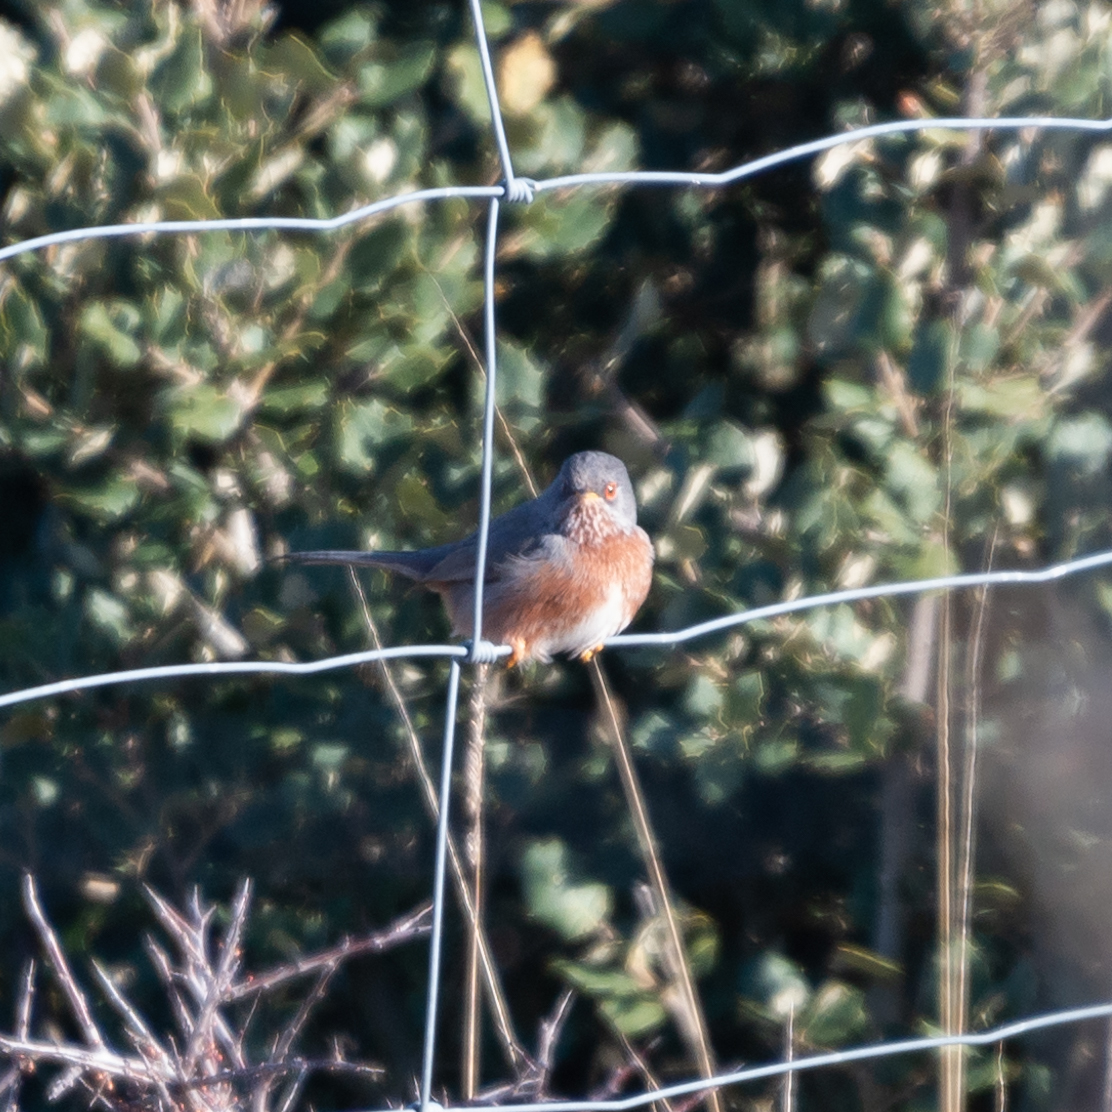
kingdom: Animalia
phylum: Chordata
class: Aves
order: Passeriformes
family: Sylviidae
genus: Sylvia
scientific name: Sylvia undata
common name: Dartford warbler
